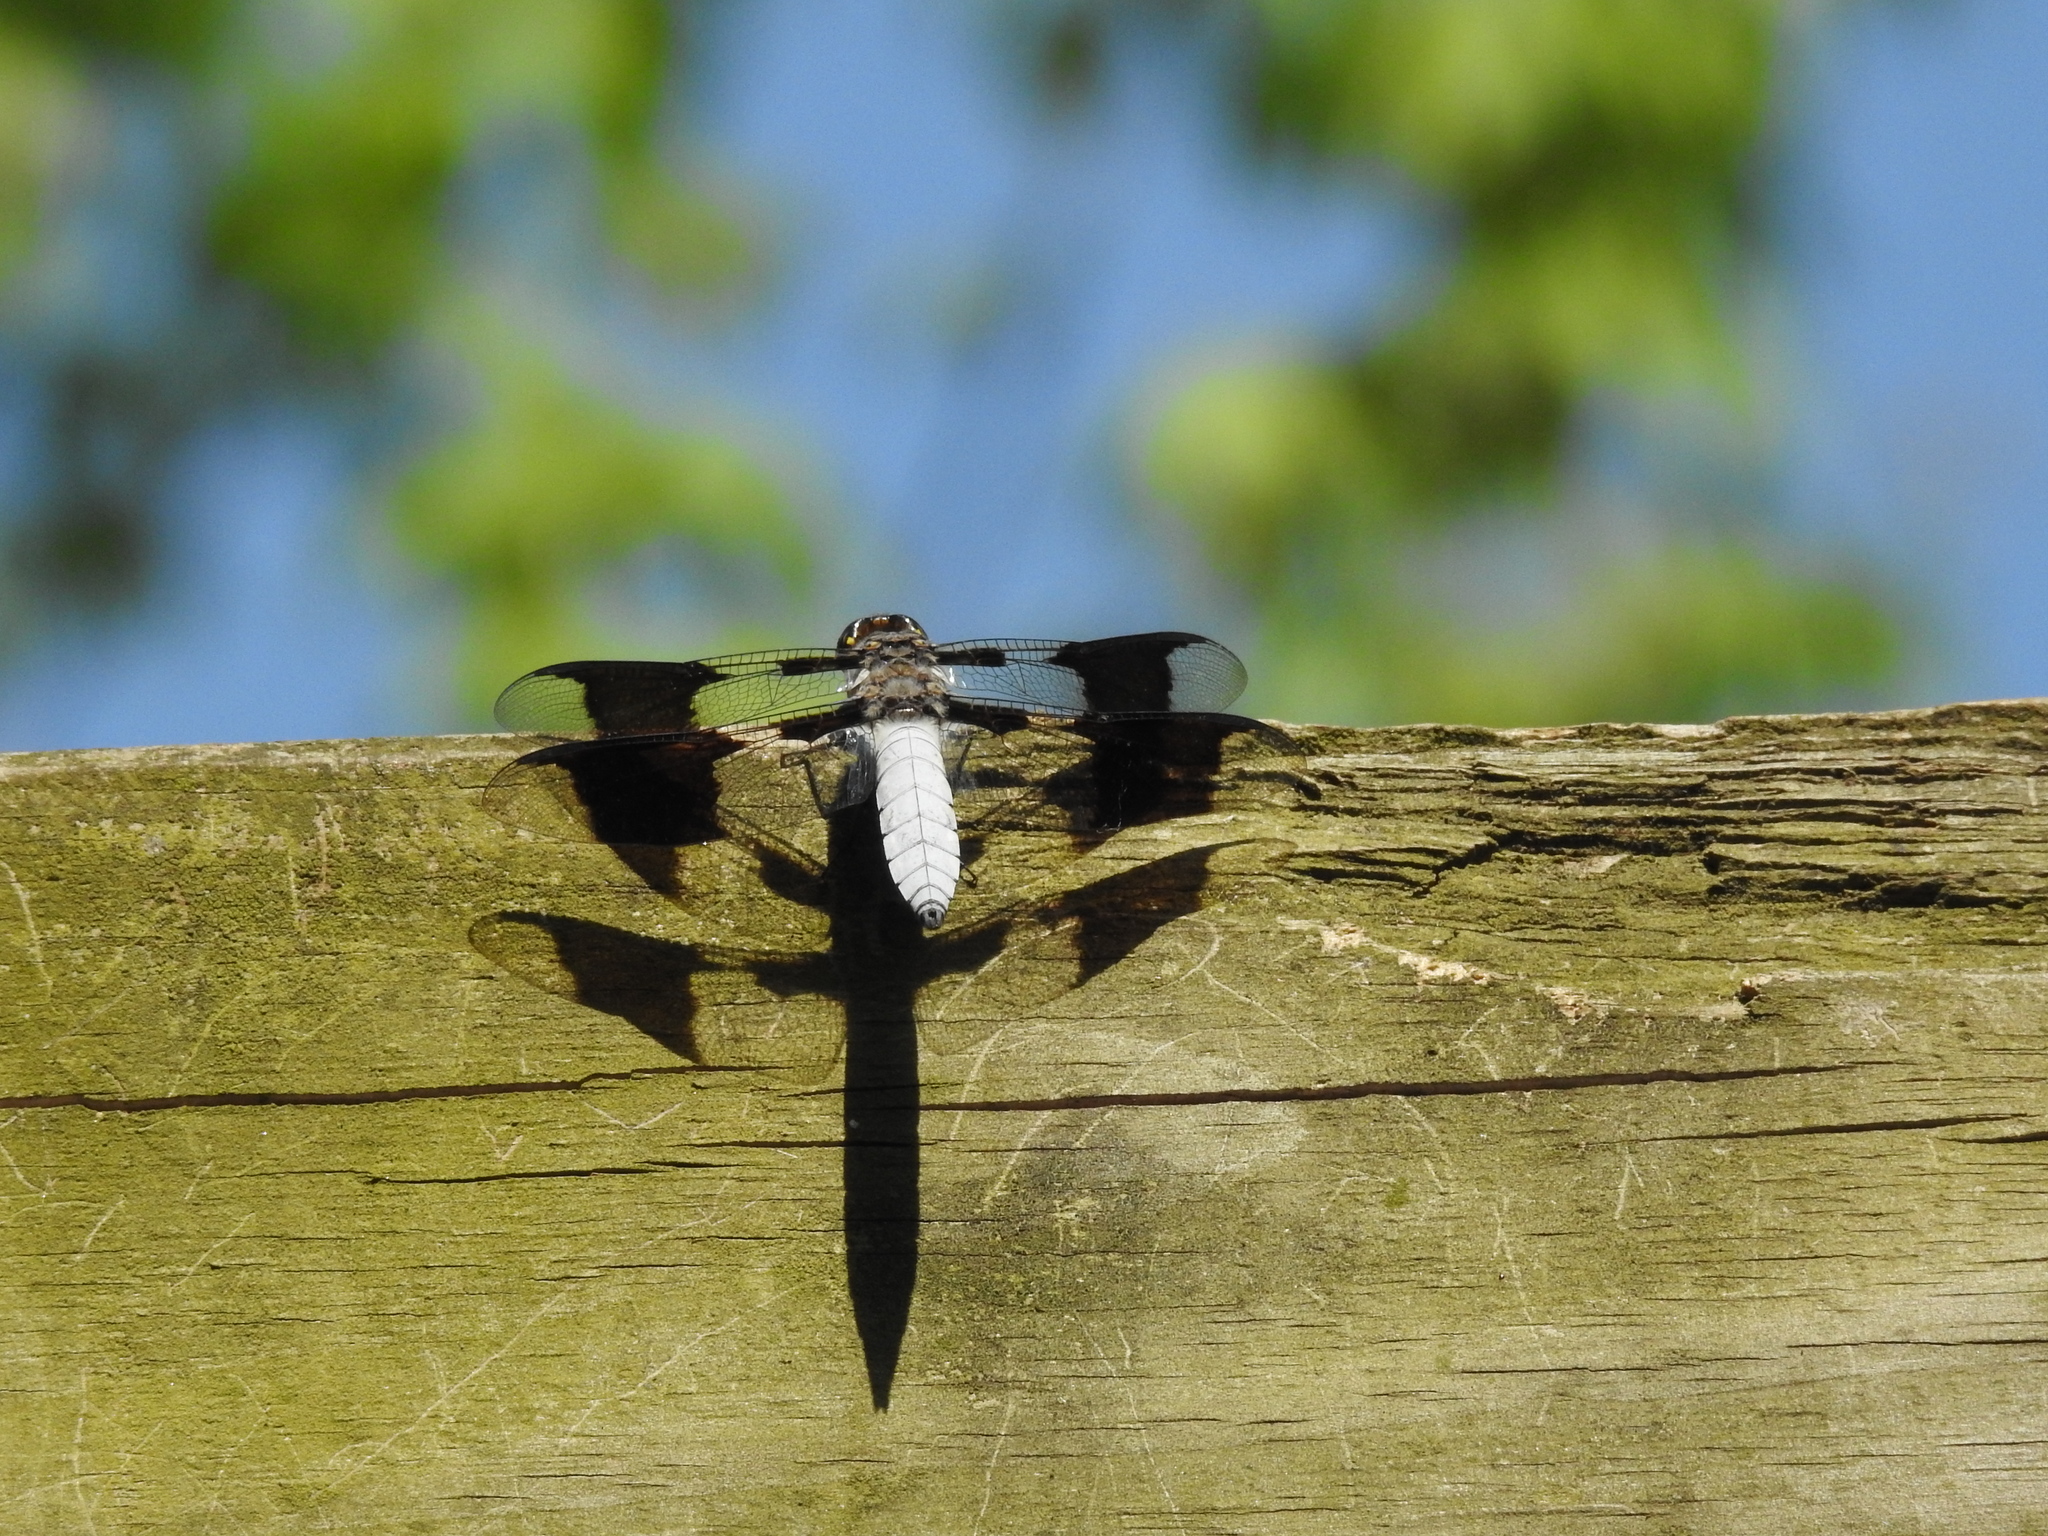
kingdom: Animalia
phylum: Arthropoda
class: Insecta
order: Odonata
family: Libellulidae
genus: Plathemis
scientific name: Plathemis lydia
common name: Common whitetail
